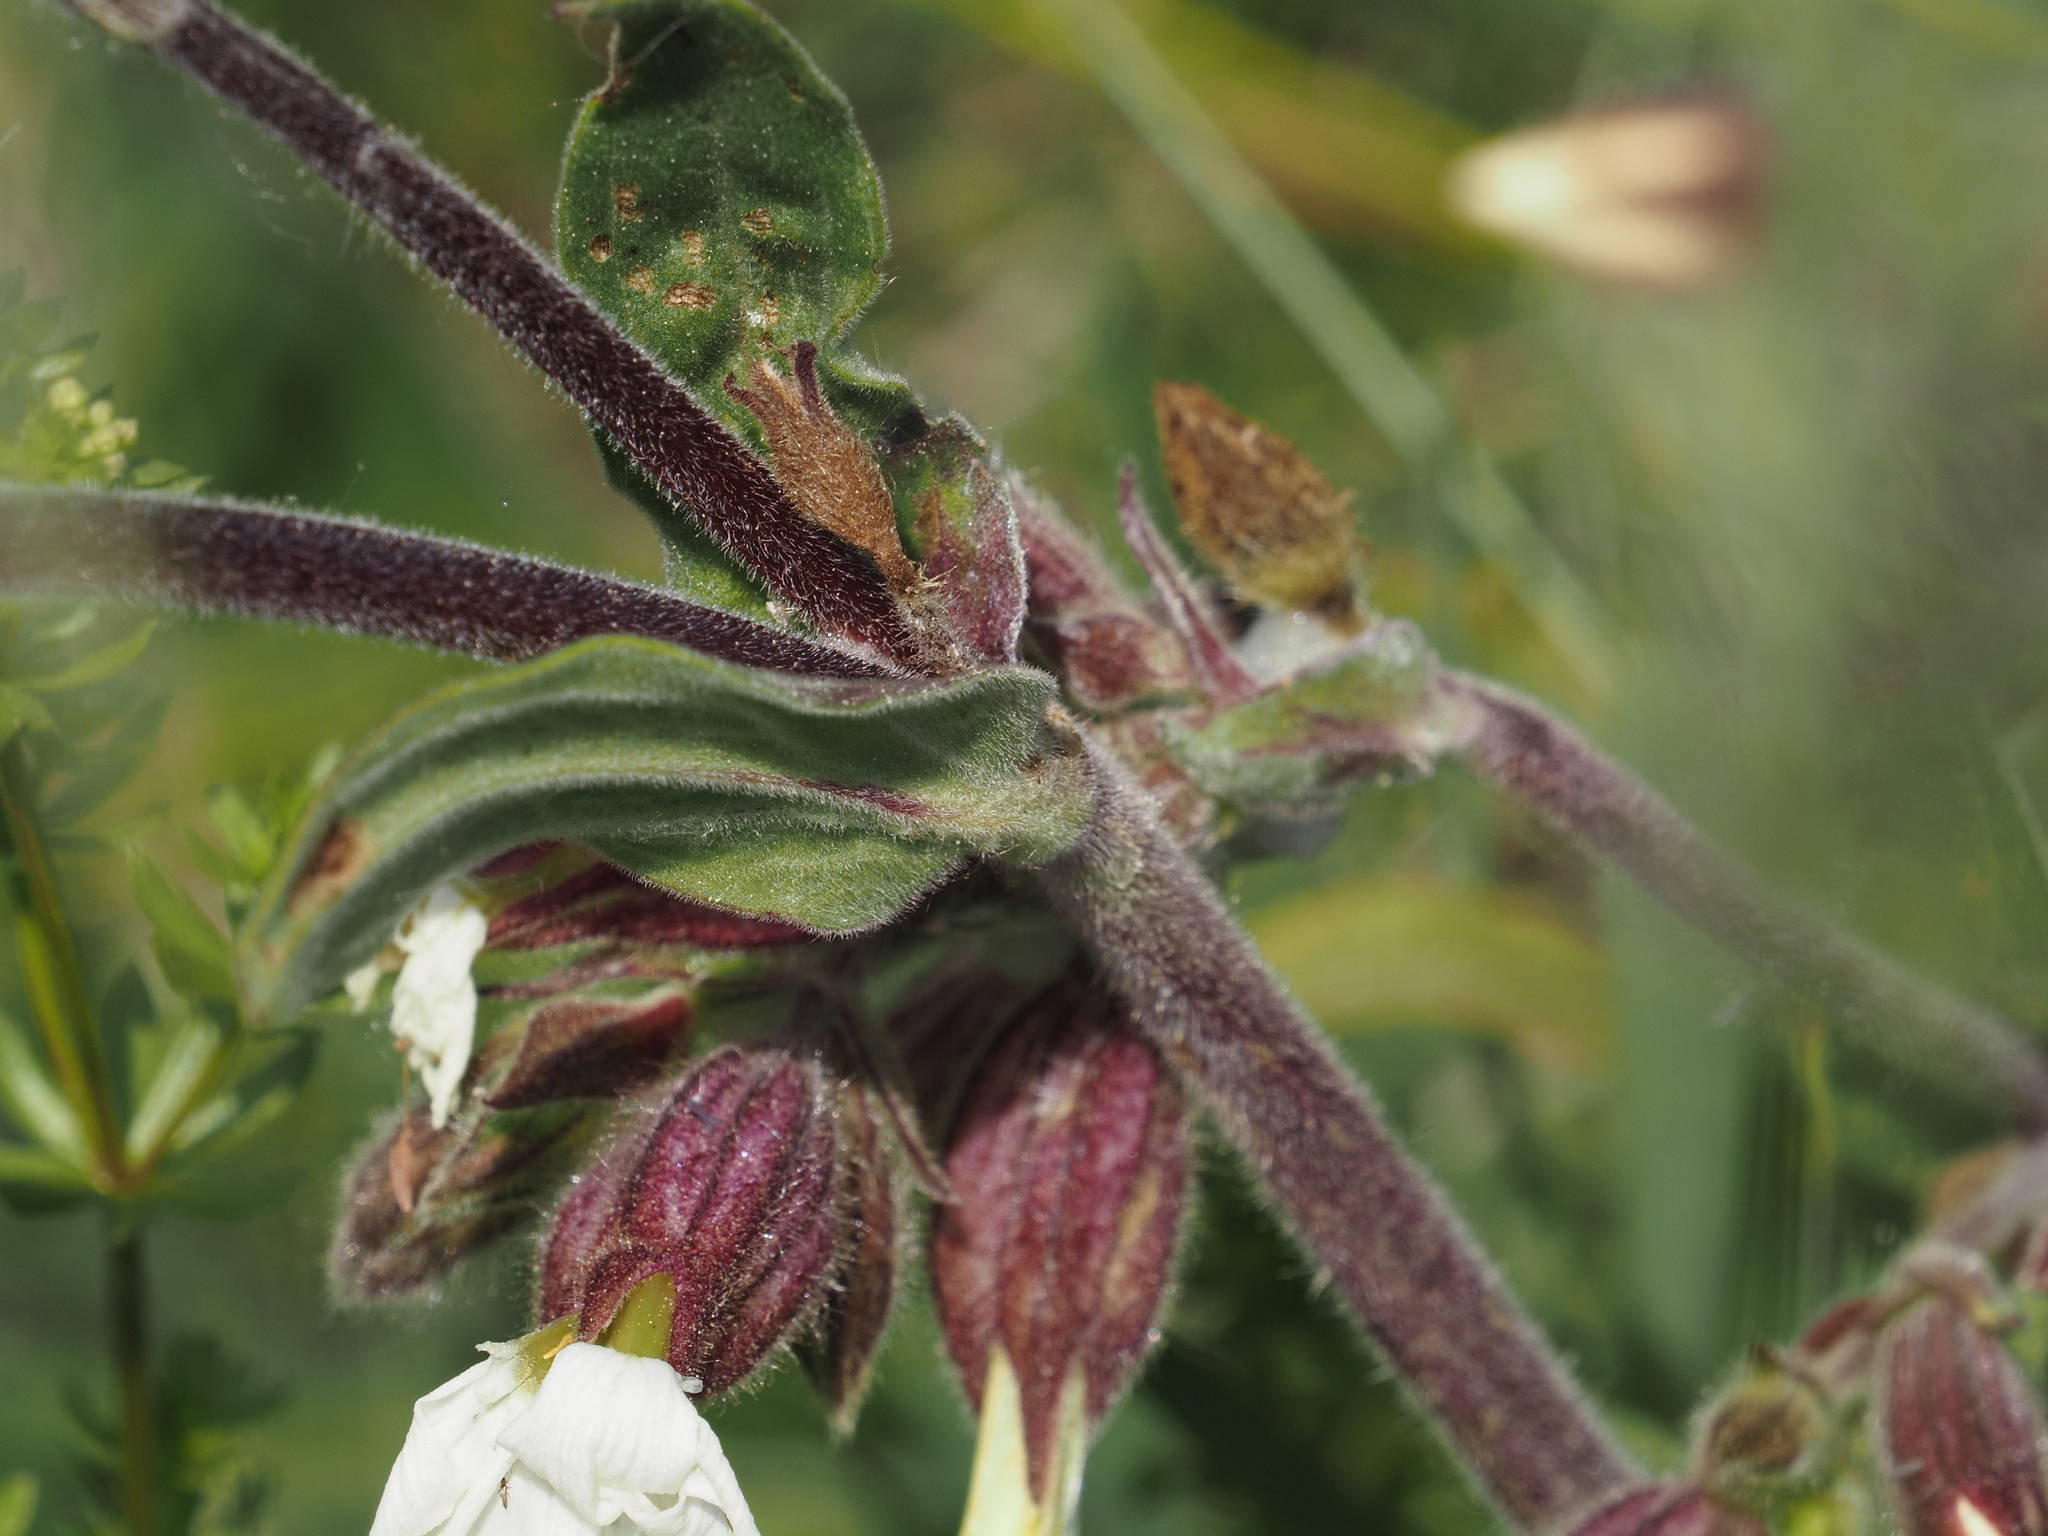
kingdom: Plantae
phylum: Tracheophyta
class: Magnoliopsida
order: Caryophyllales
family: Caryophyllaceae
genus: Silene
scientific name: Silene latifolia
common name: White campion
